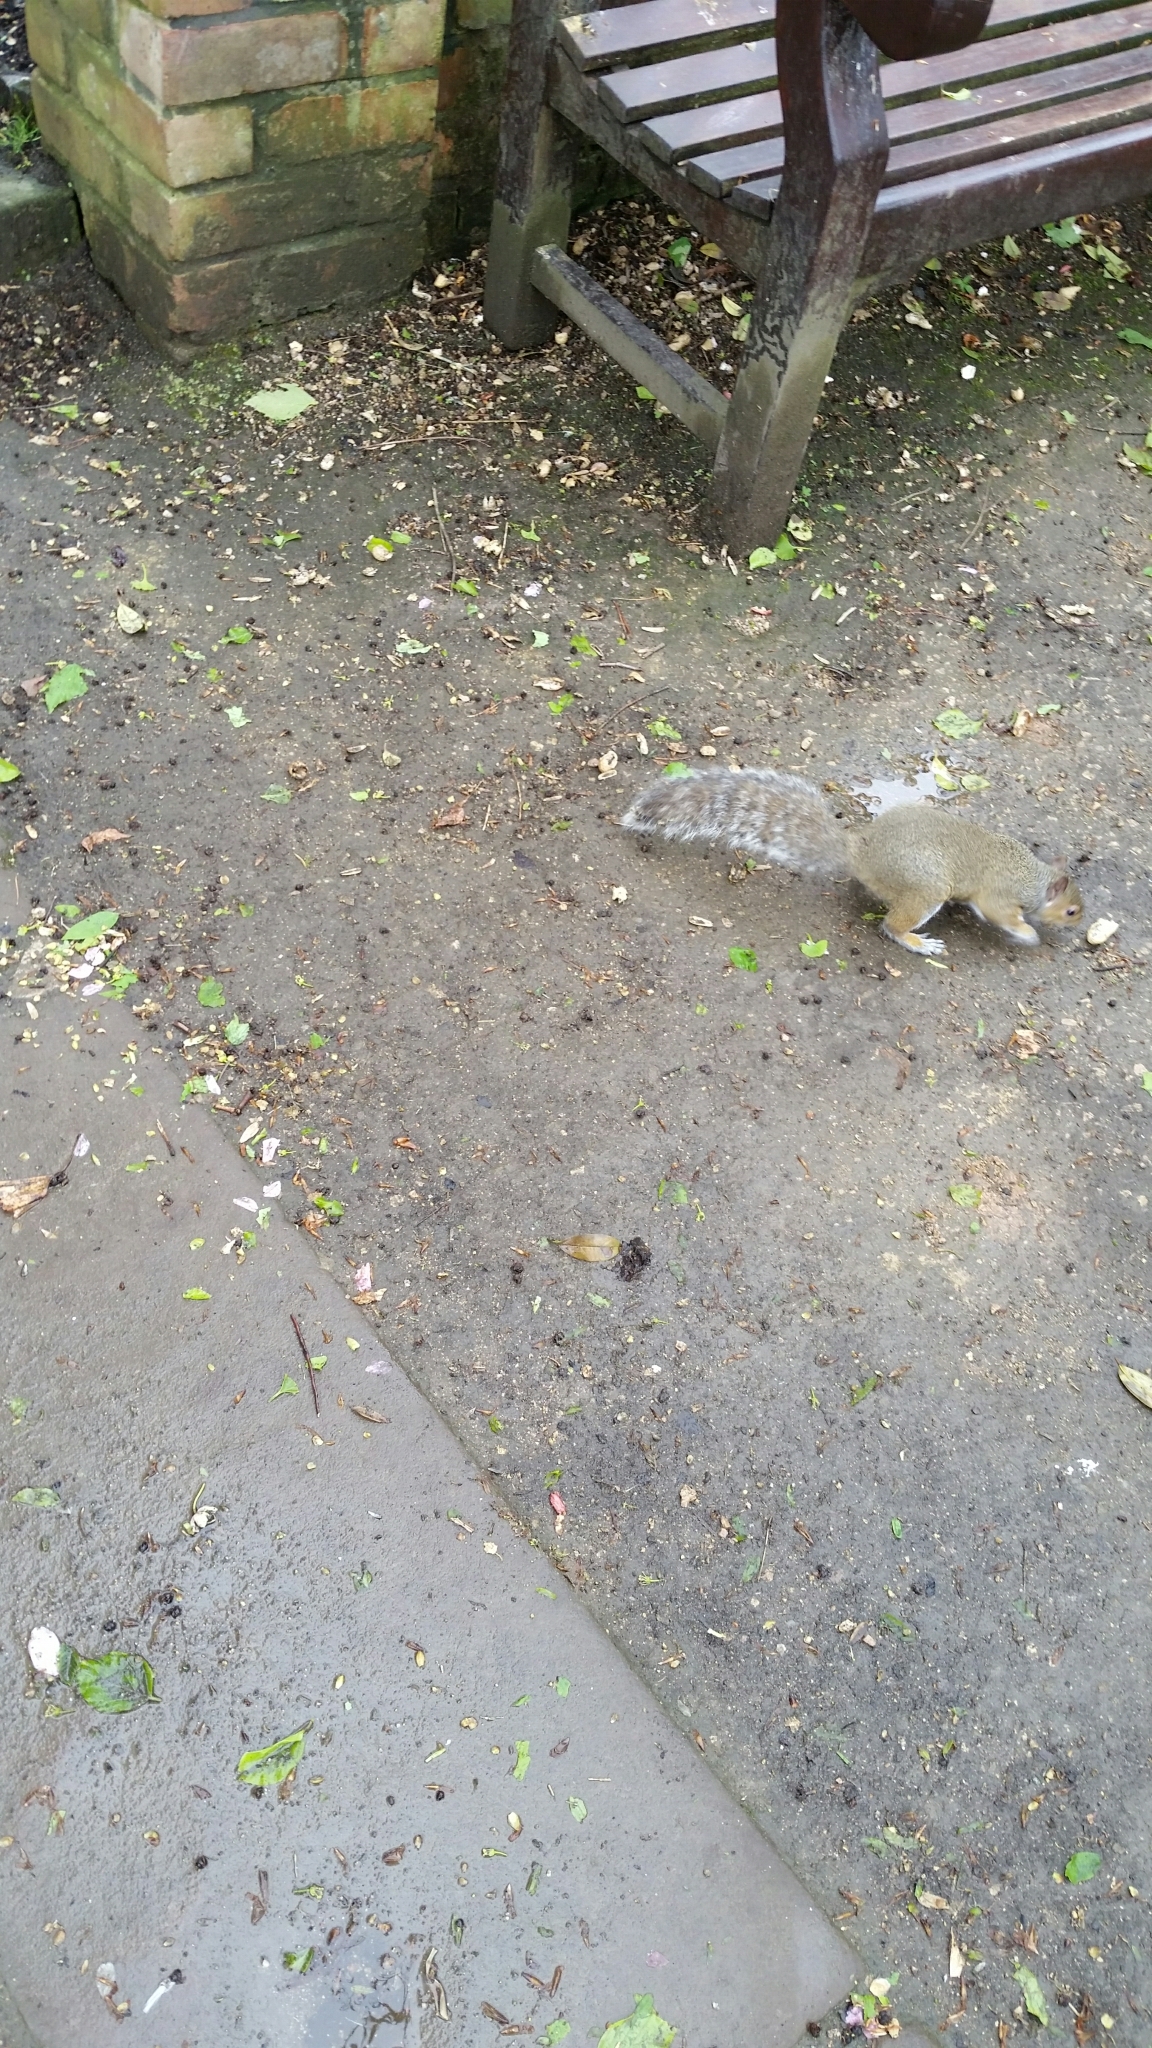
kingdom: Animalia
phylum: Chordata
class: Mammalia
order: Rodentia
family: Sciuridae
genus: Sciurus
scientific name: Sciurus carolinensis
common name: Eastern gray squirrel
